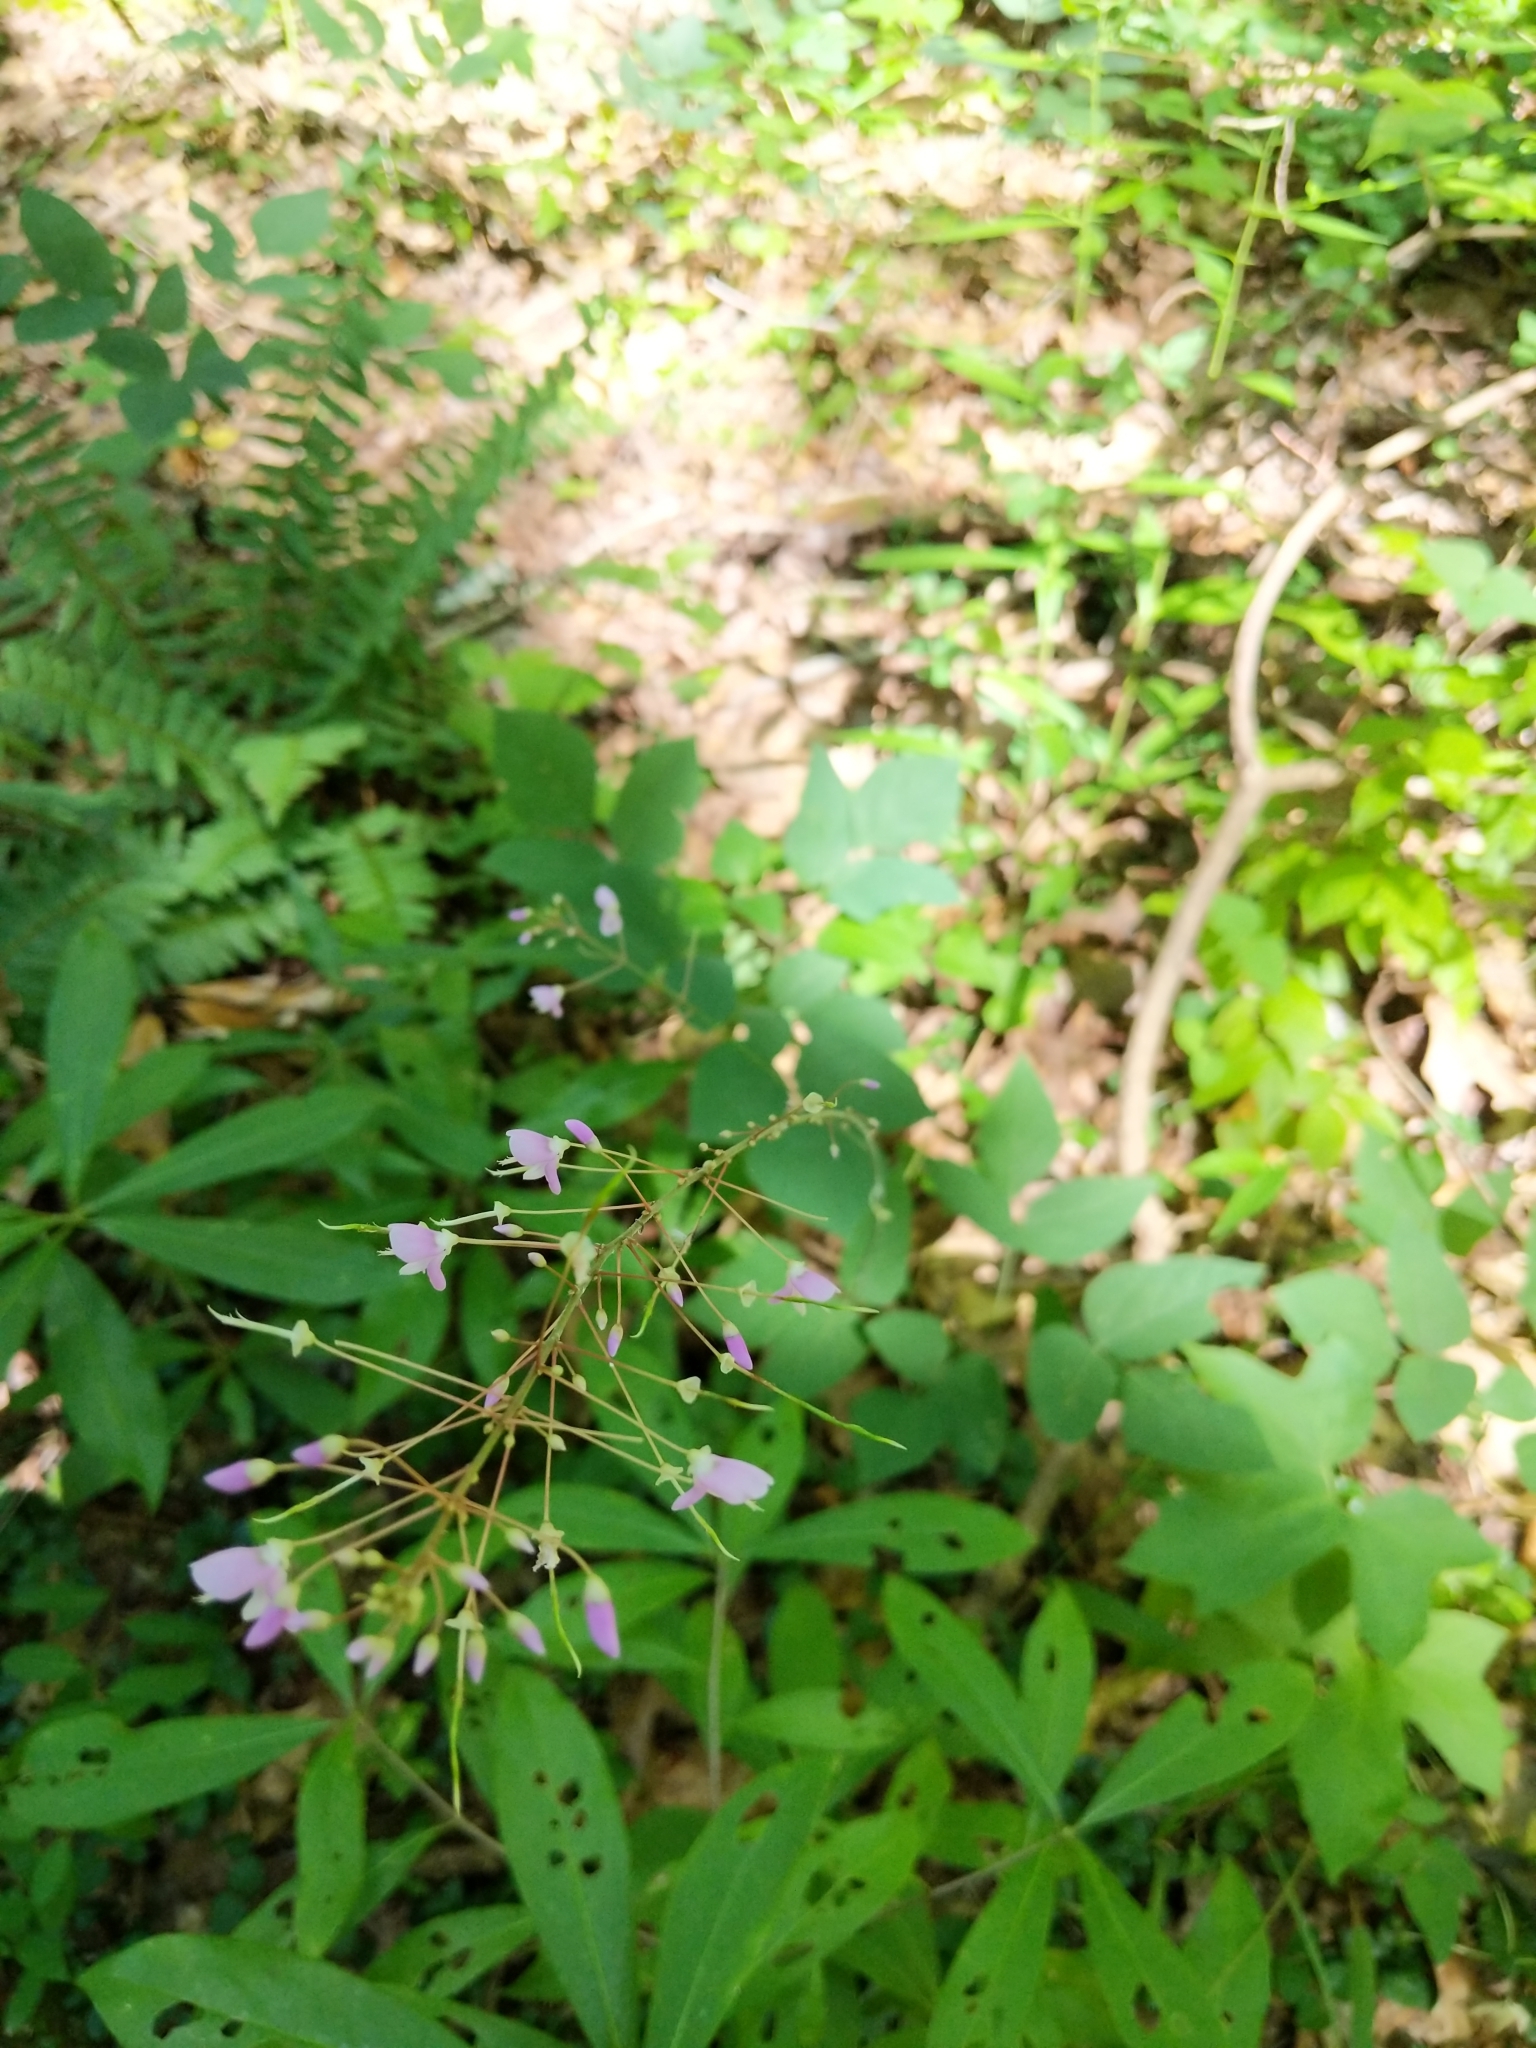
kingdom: Plantae
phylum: Tracheophyta
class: Magnoliopsida
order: Fabales
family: Fabaceae
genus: Hylodesmum
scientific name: Hylodesmum nudiflorum
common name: Bare-stemmed tick-trefoil
